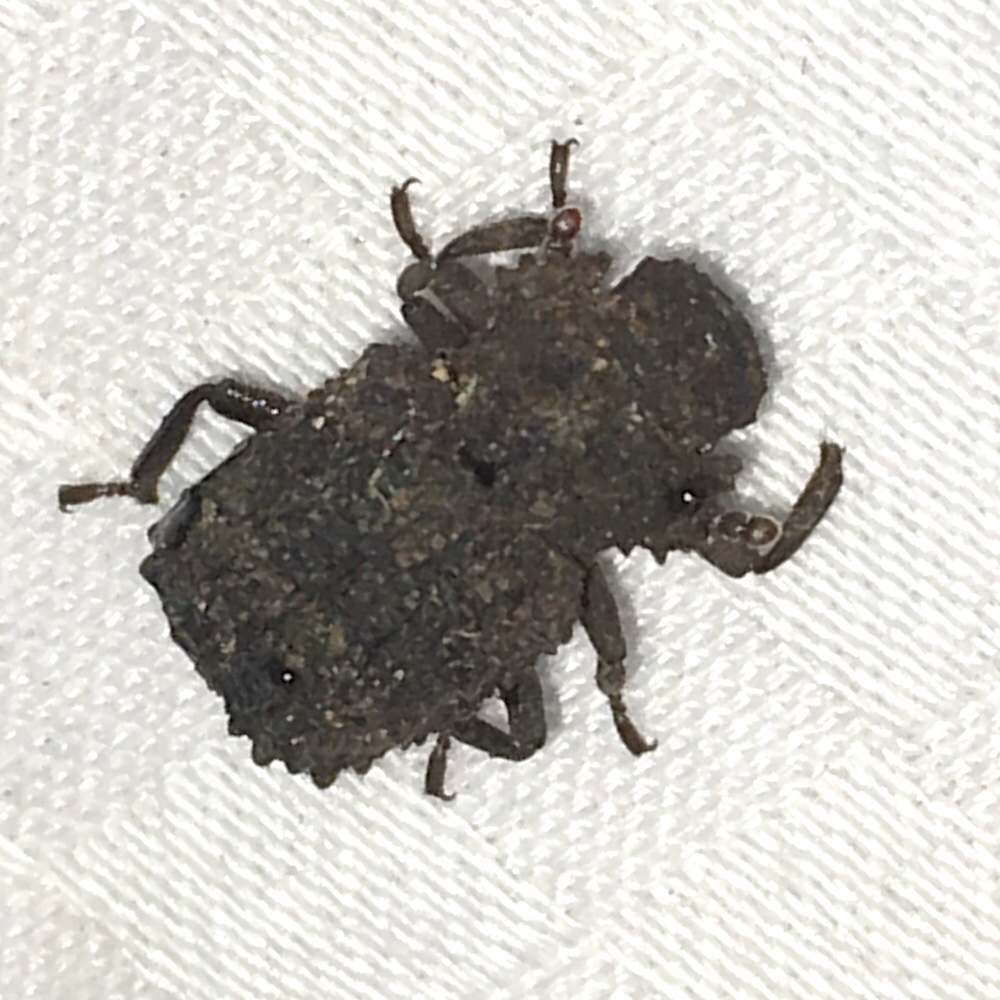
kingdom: Animalia
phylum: Arthropoda
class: Insecta
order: Coleoptera
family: Tenebrionidae
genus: Gnatocerus
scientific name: Gnatocerus cornutus
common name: Broad-horned flour beetle
